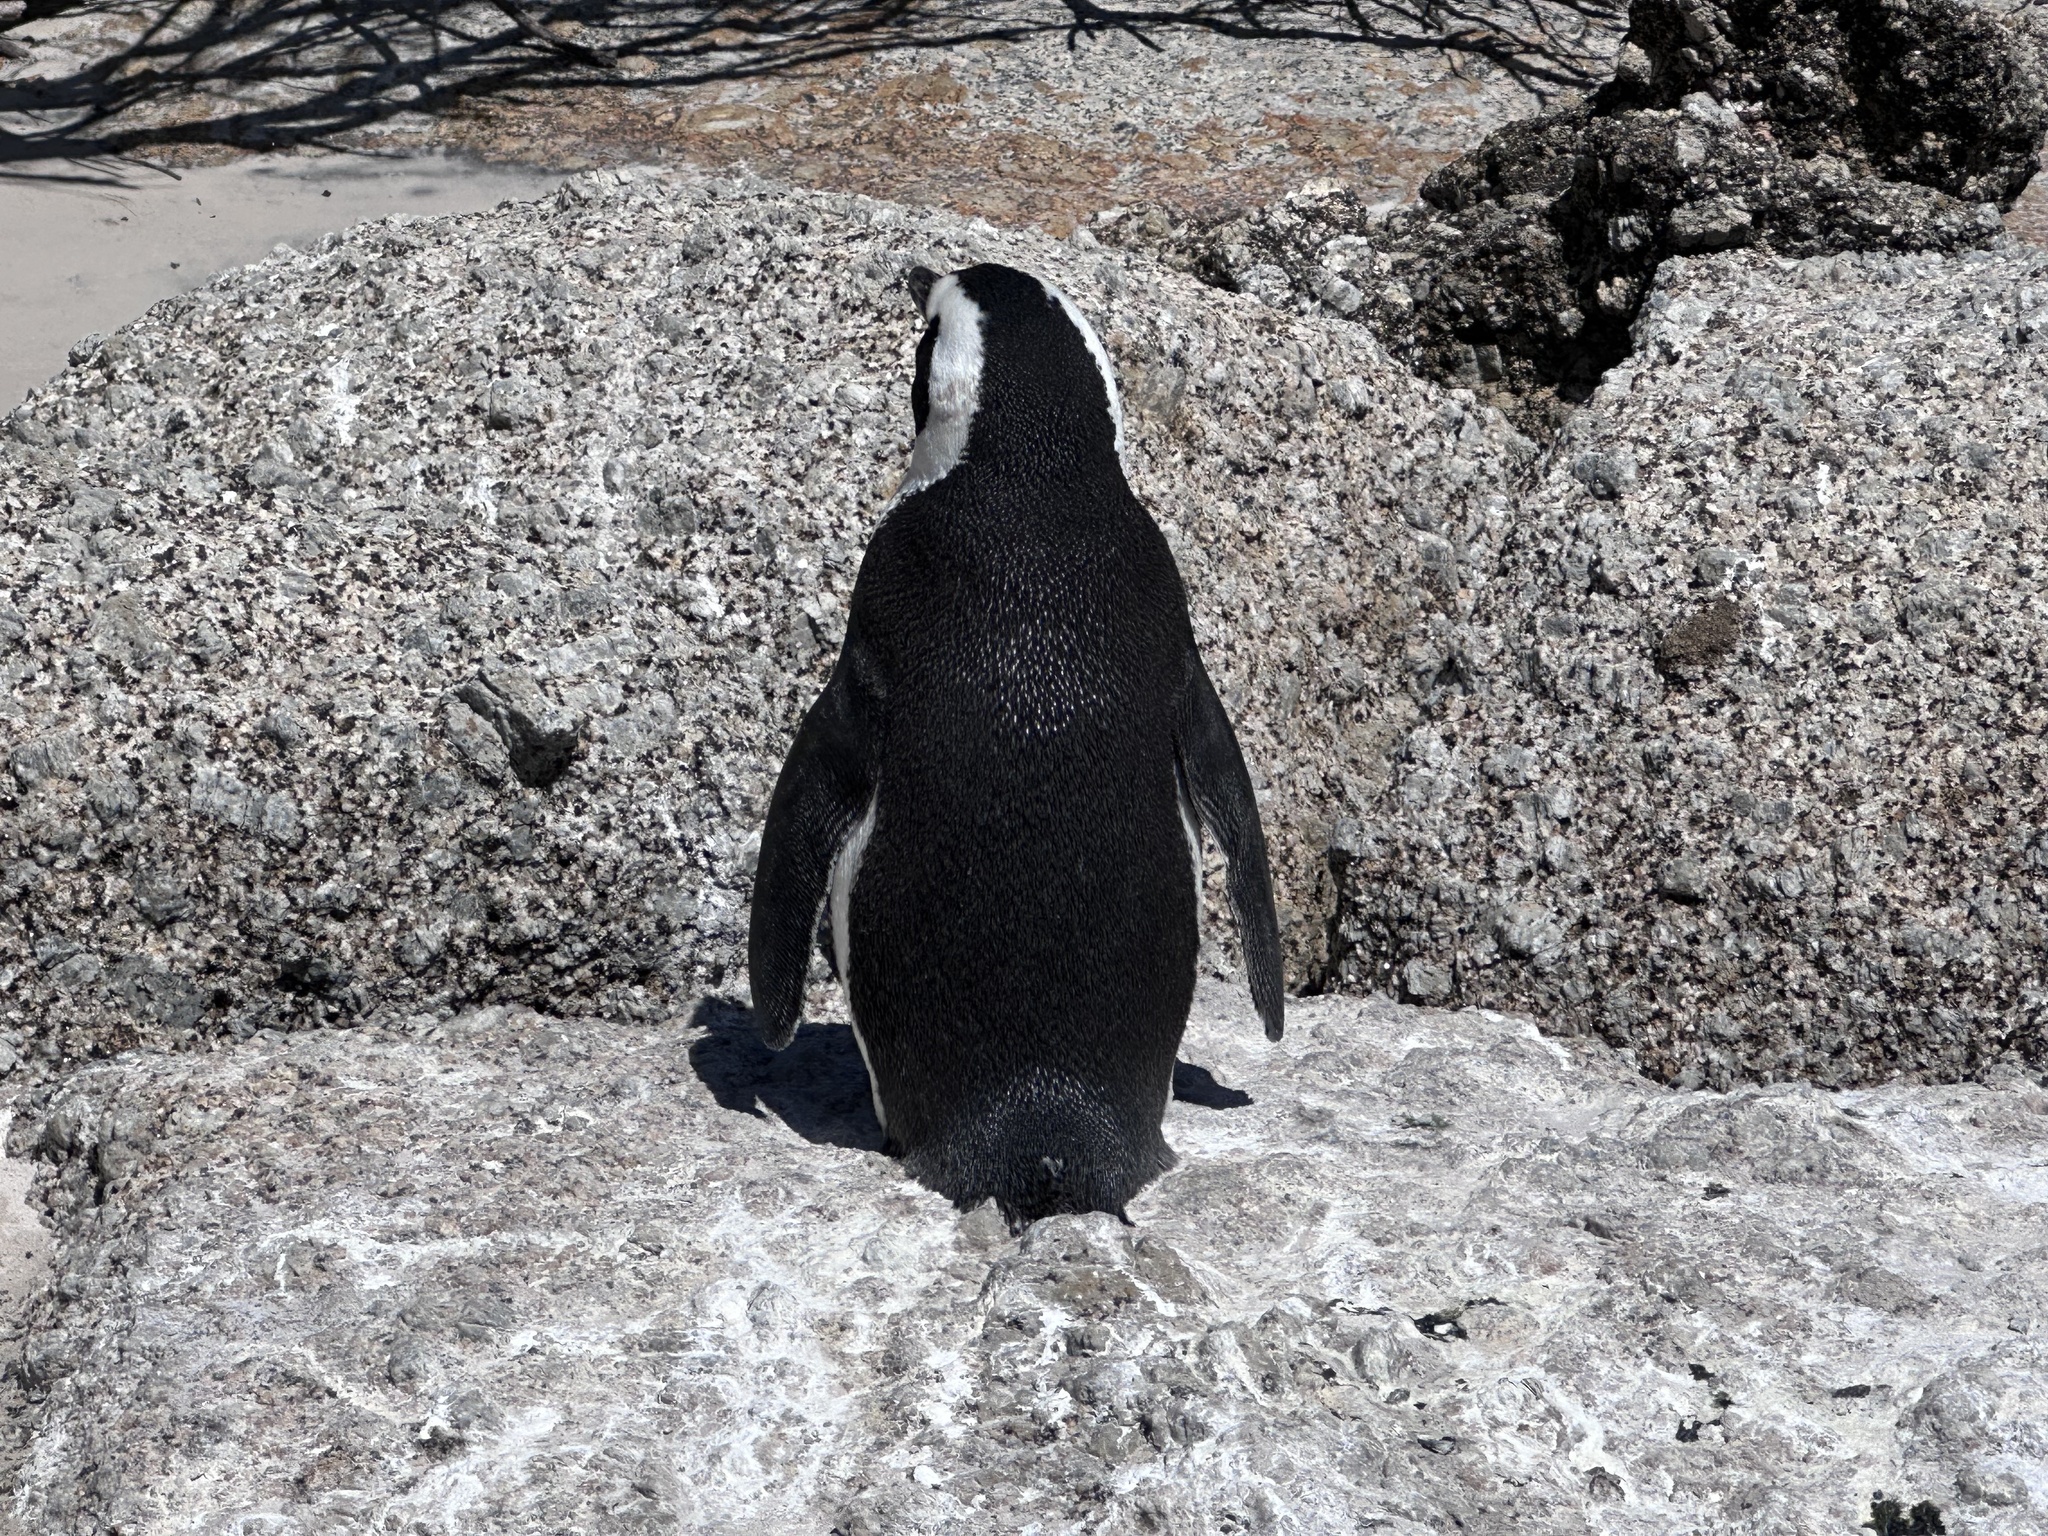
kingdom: Animalia
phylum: Chordata
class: Aves
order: Sphenisciformes
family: Spheniscidae
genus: Spheniscus
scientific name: Spheniscus demersus
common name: African penguin
